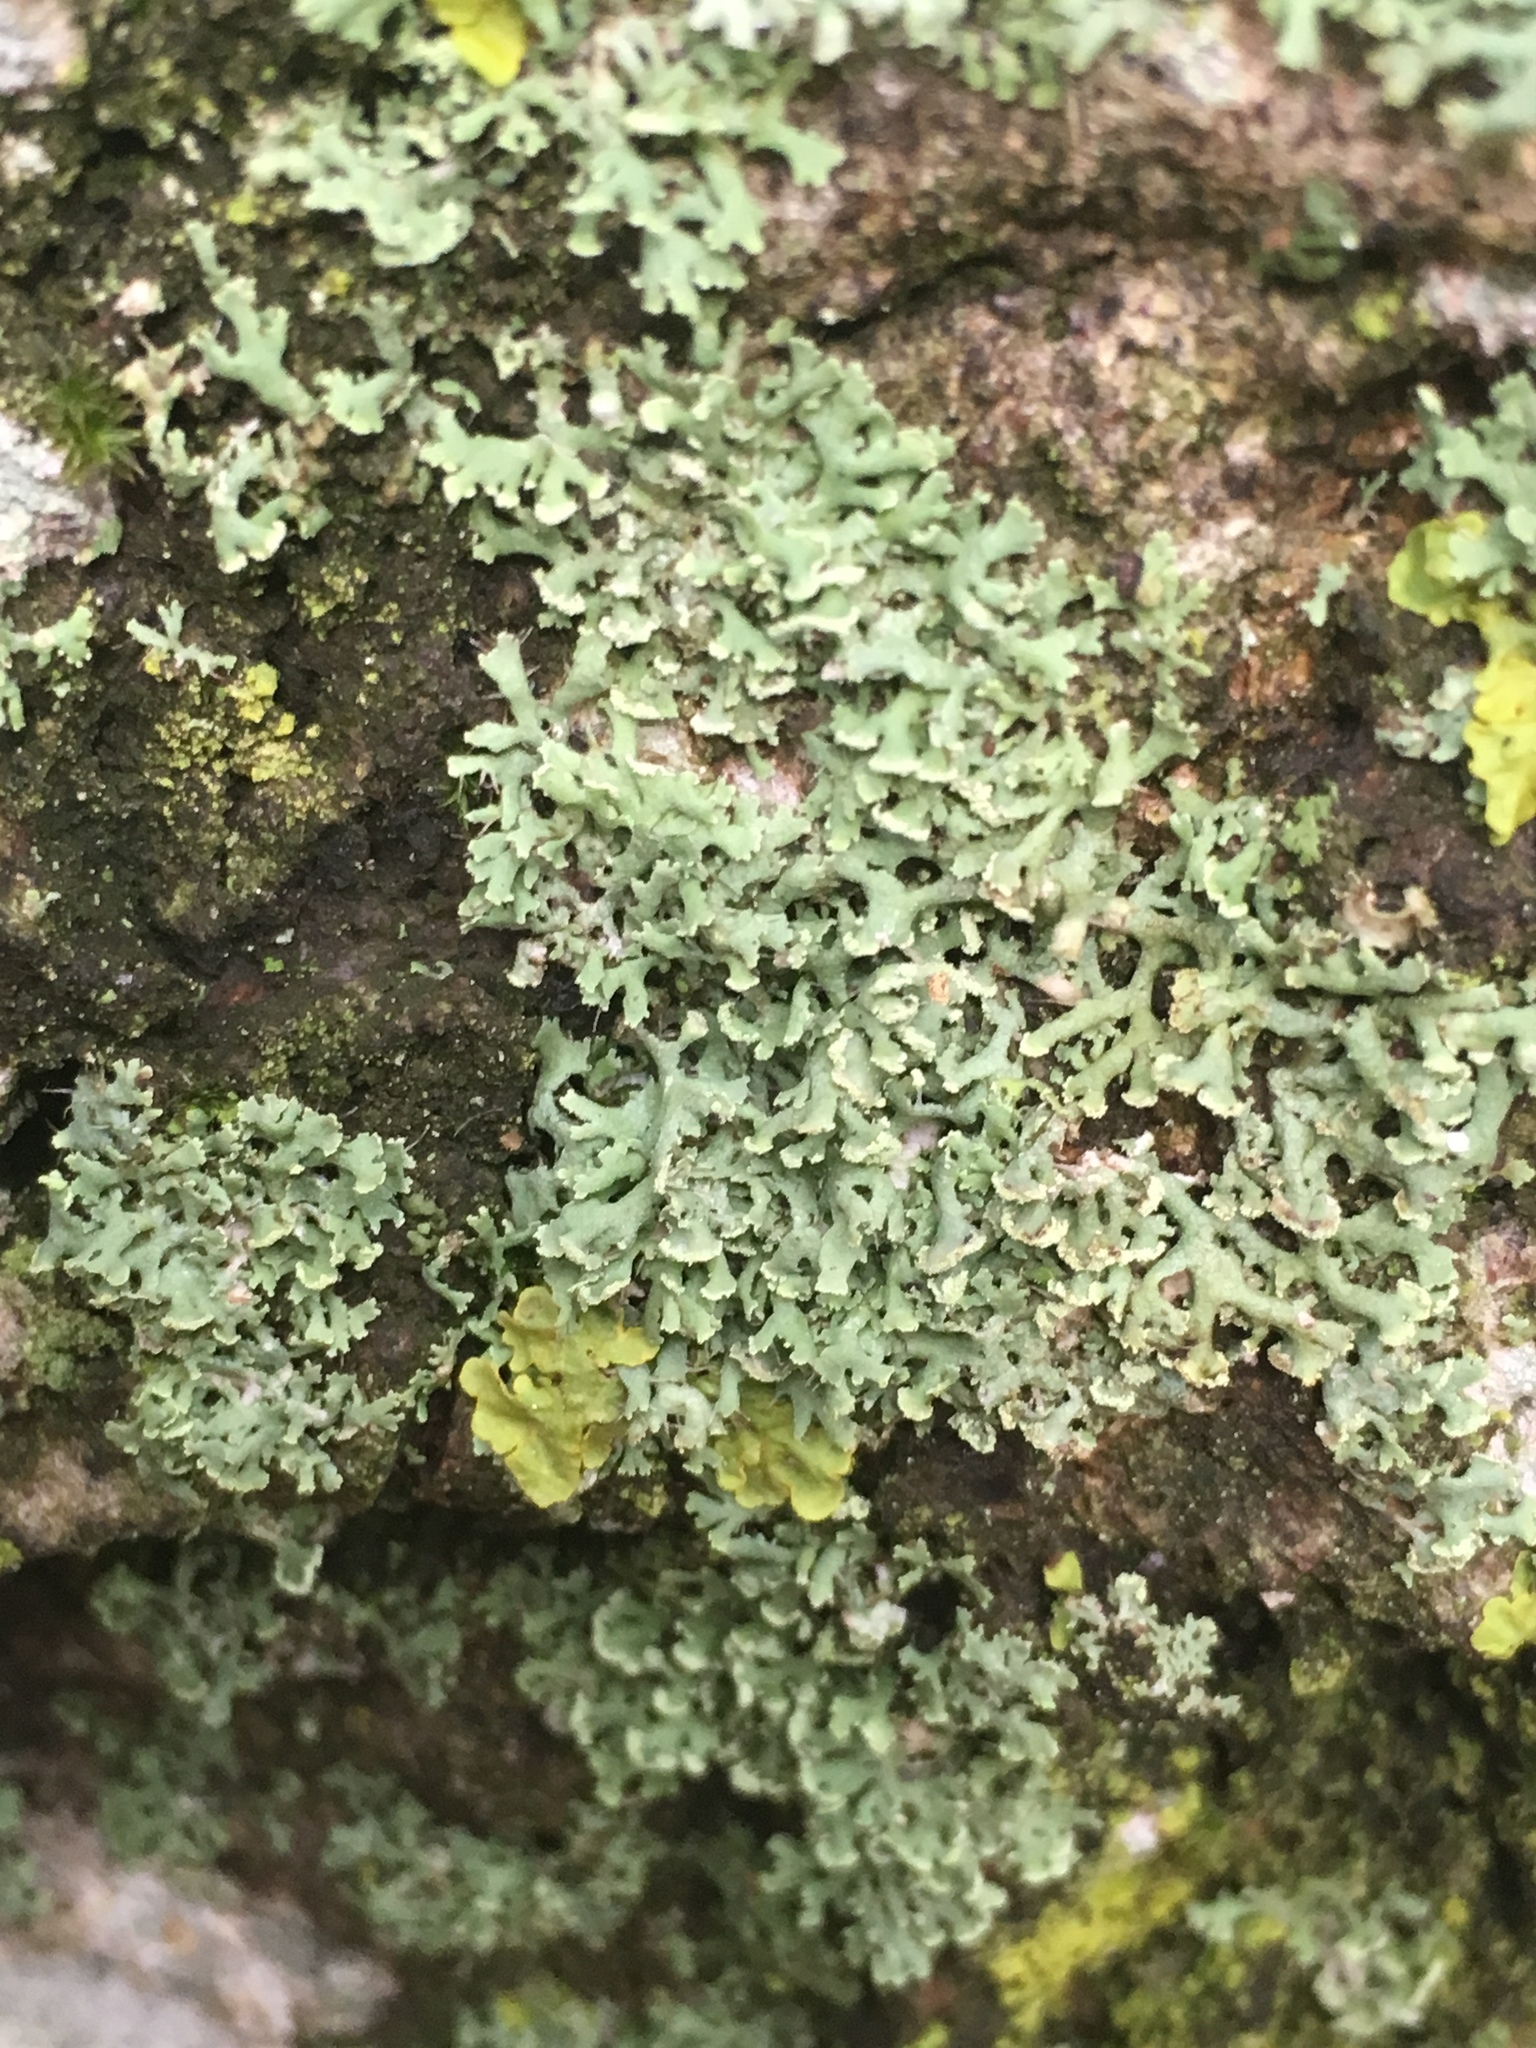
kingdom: Fungi
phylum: Ascomycota
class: Lecanoromycetes
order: Caliciales
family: Physciaceae
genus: Physcia
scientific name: Physcia tenella
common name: Fringed rosette lichen
